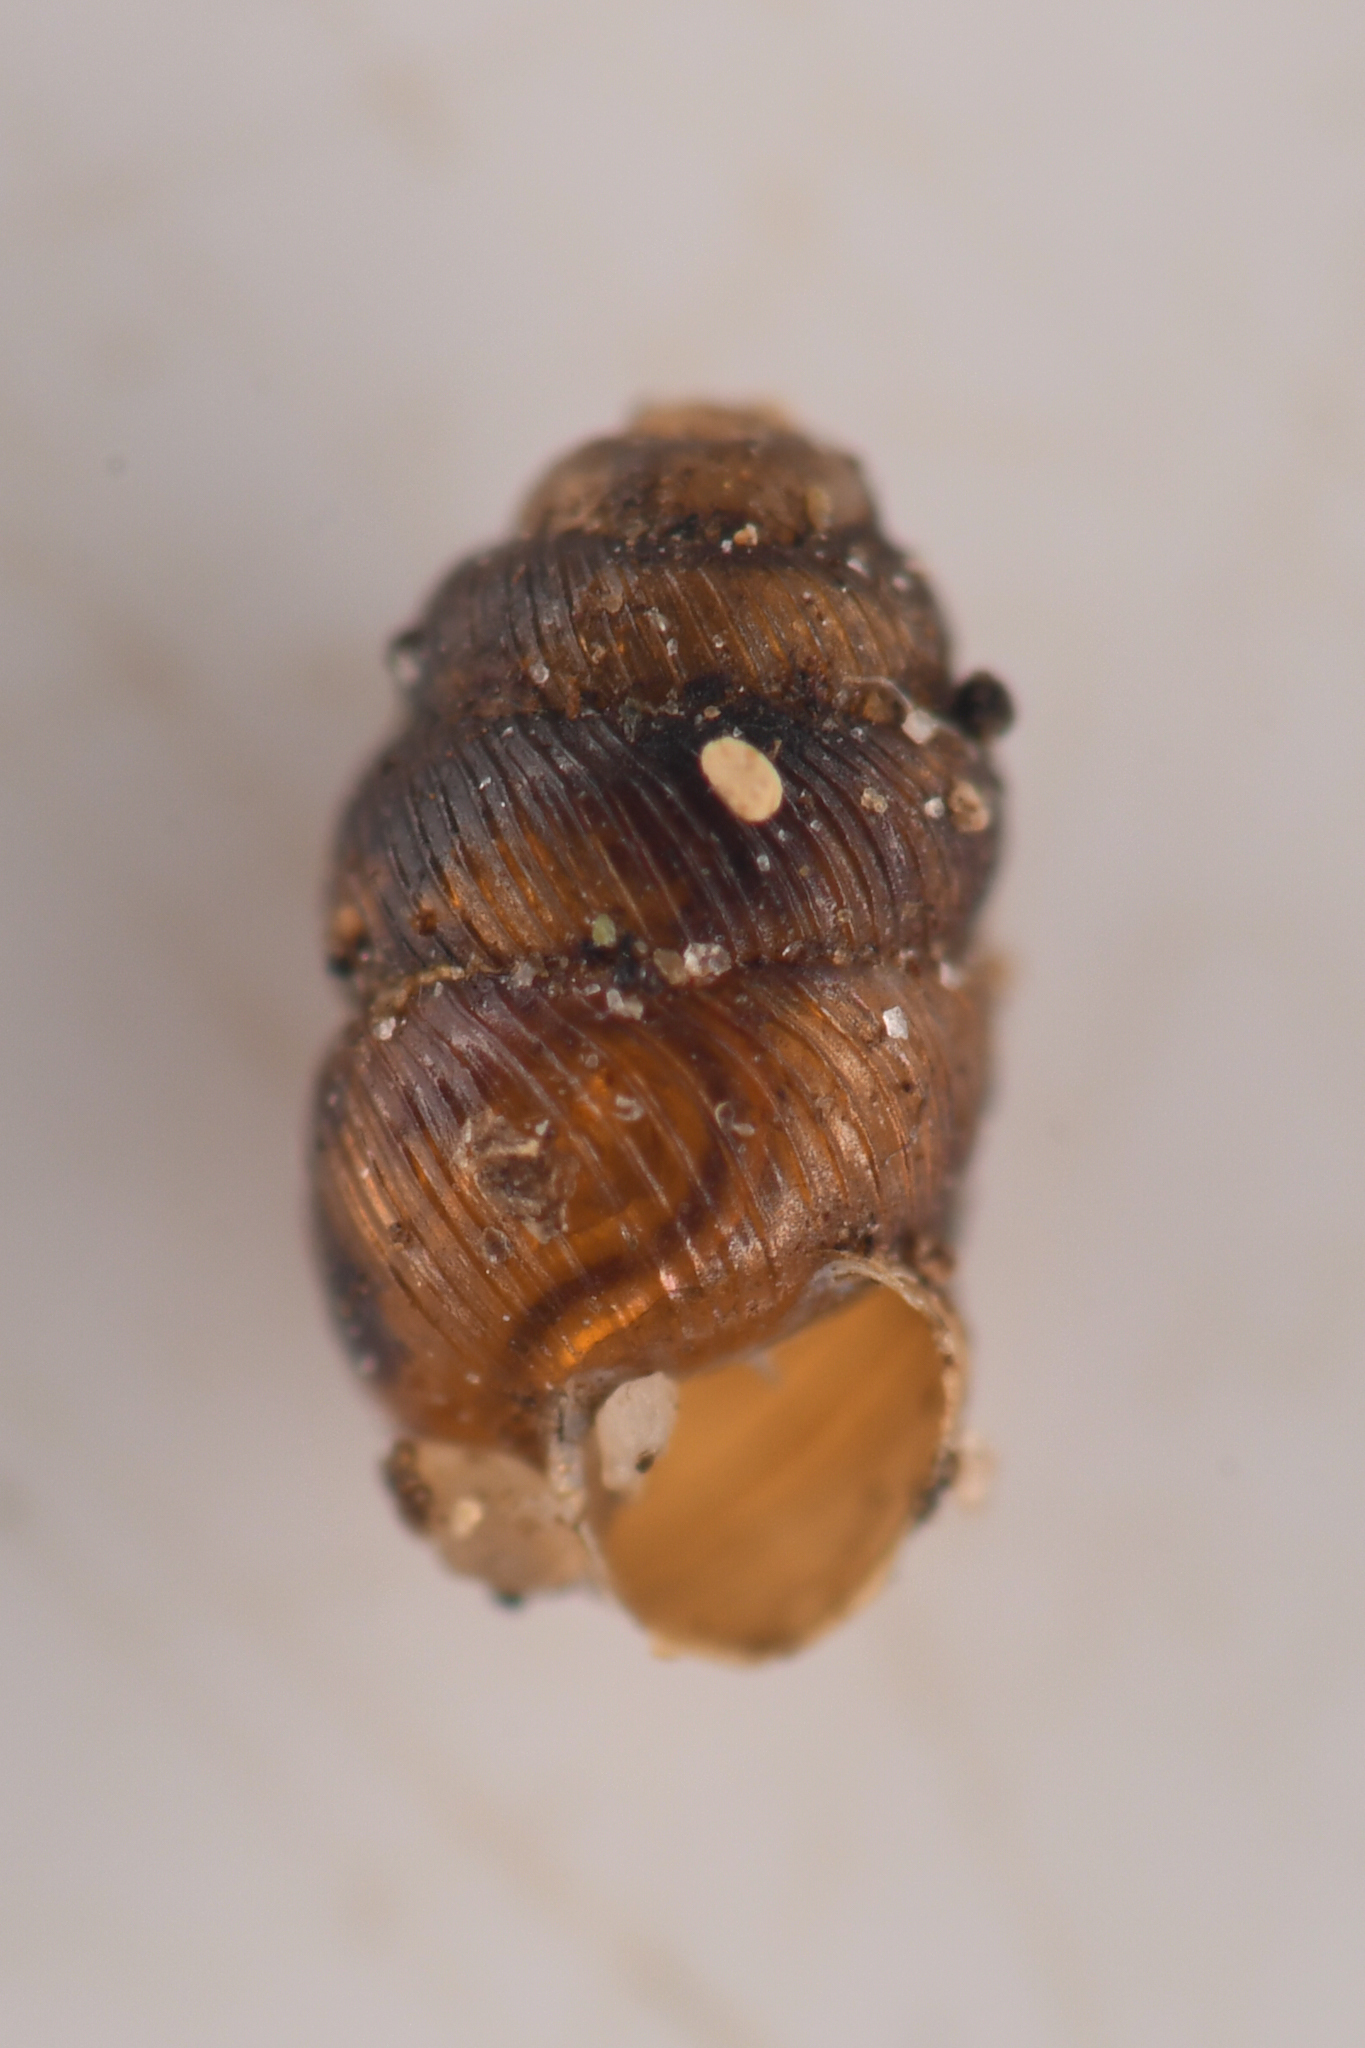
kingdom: Animalia
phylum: Mollusca
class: Gastropoda
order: Stylommatophora
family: Vertiginidae
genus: Vertigo
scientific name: Vertigo californica
